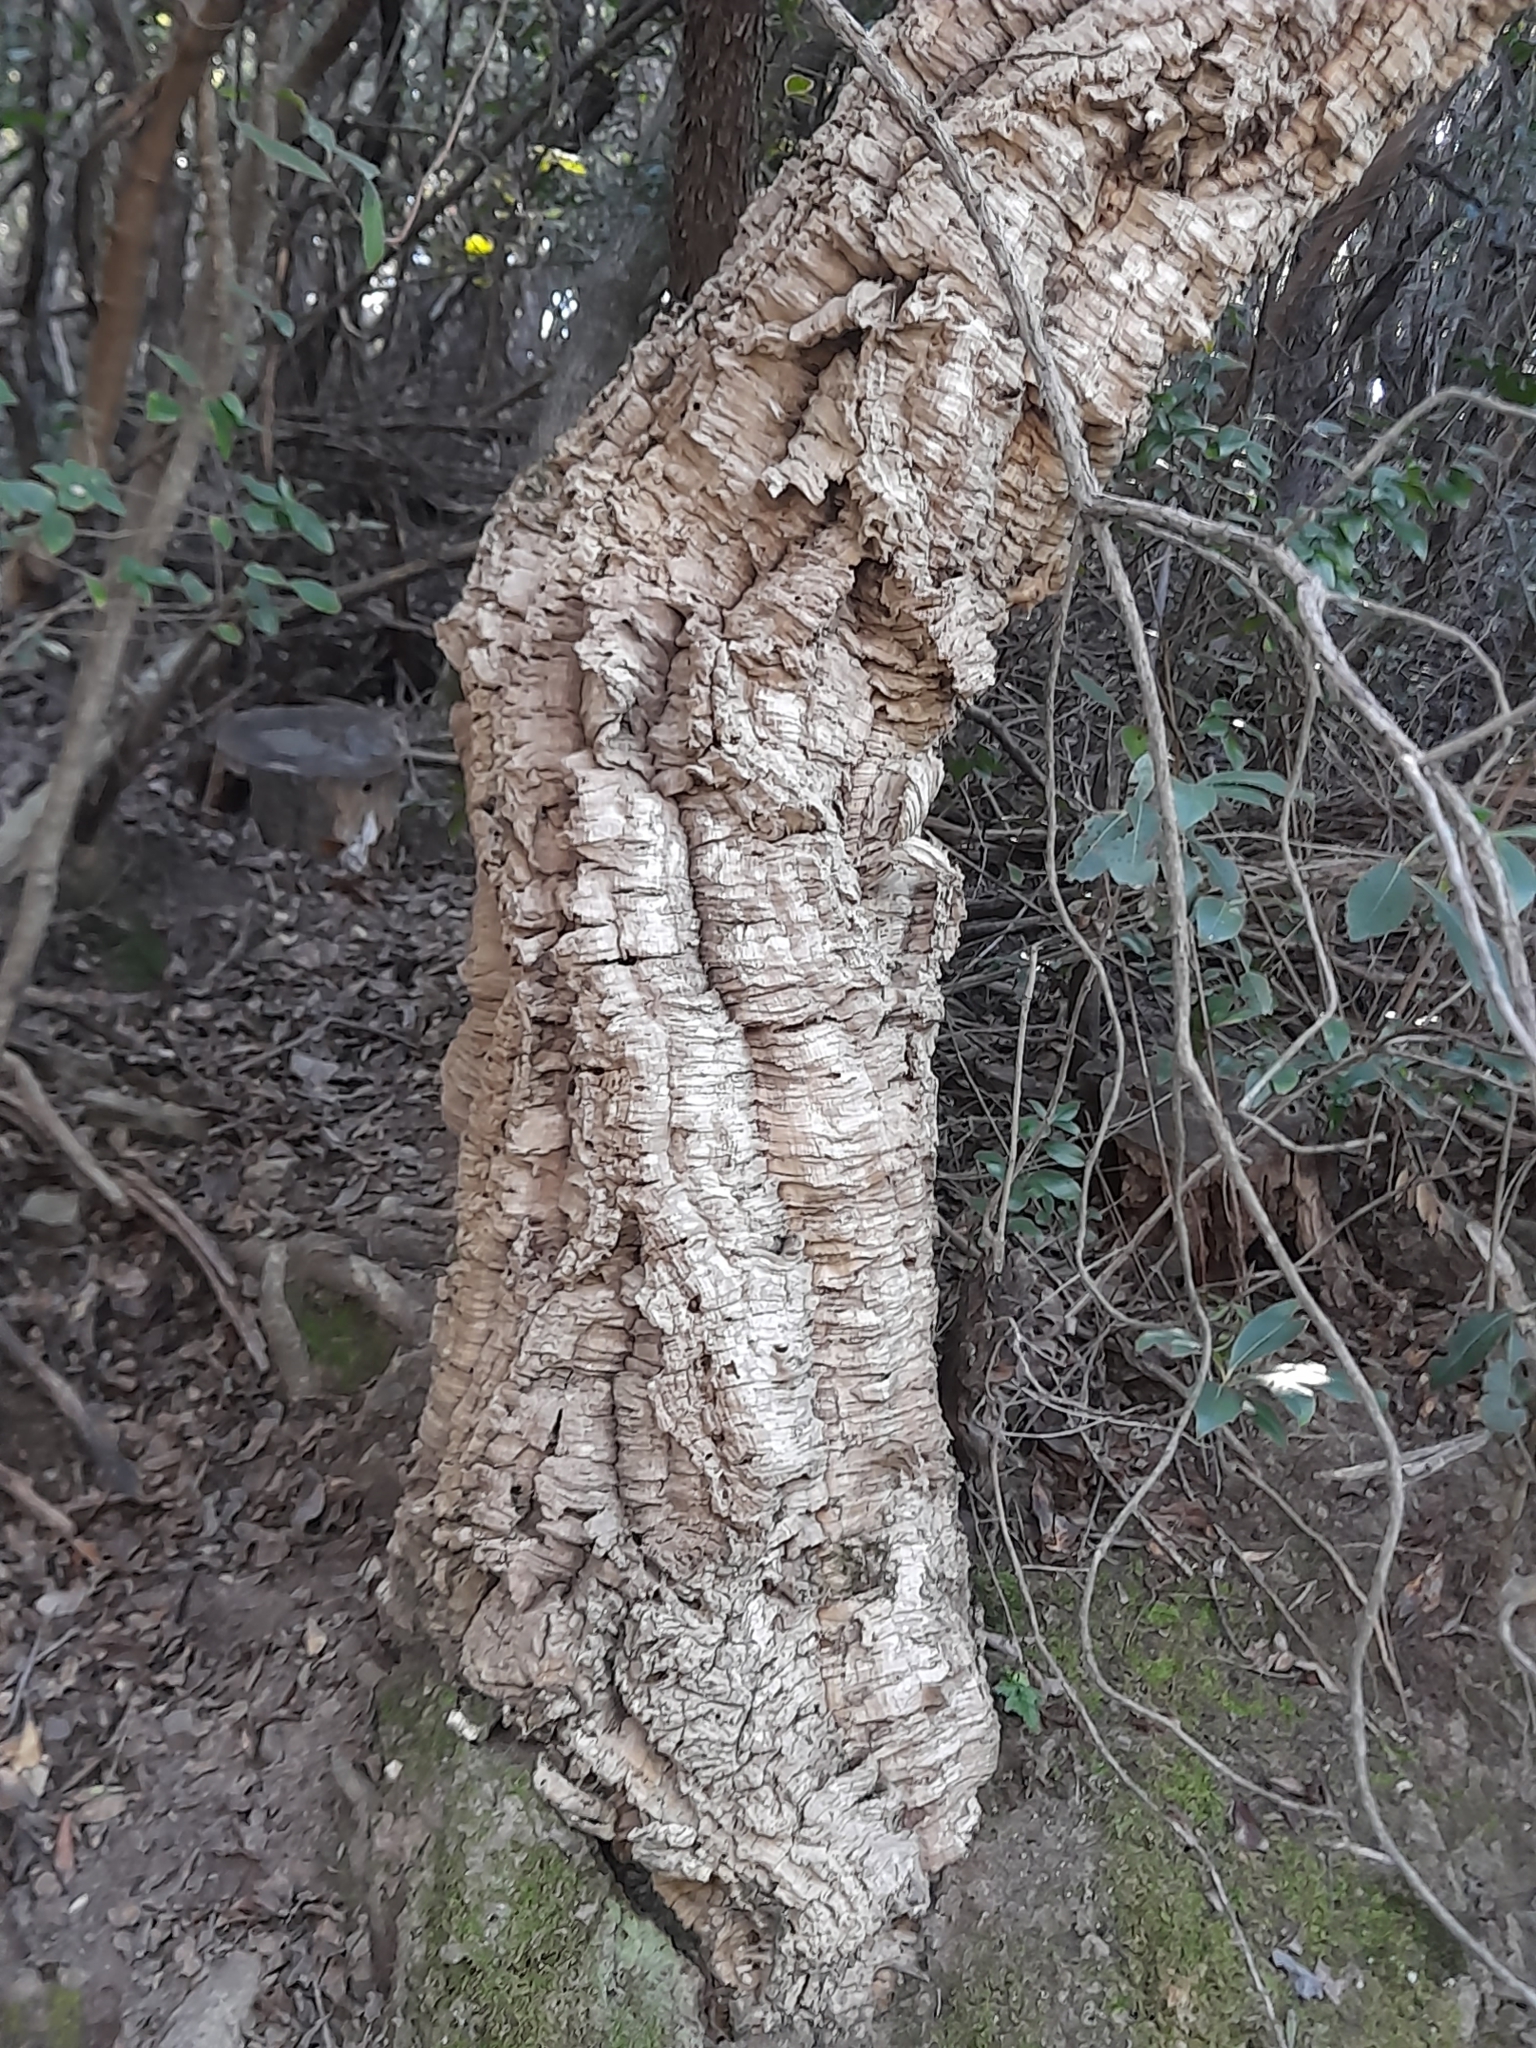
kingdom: Plantae
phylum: Tracheophyta
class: Magnoliopsida
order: Fagales
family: Fagaceae
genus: Quercus
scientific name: Quercus suber
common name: Cork oak
